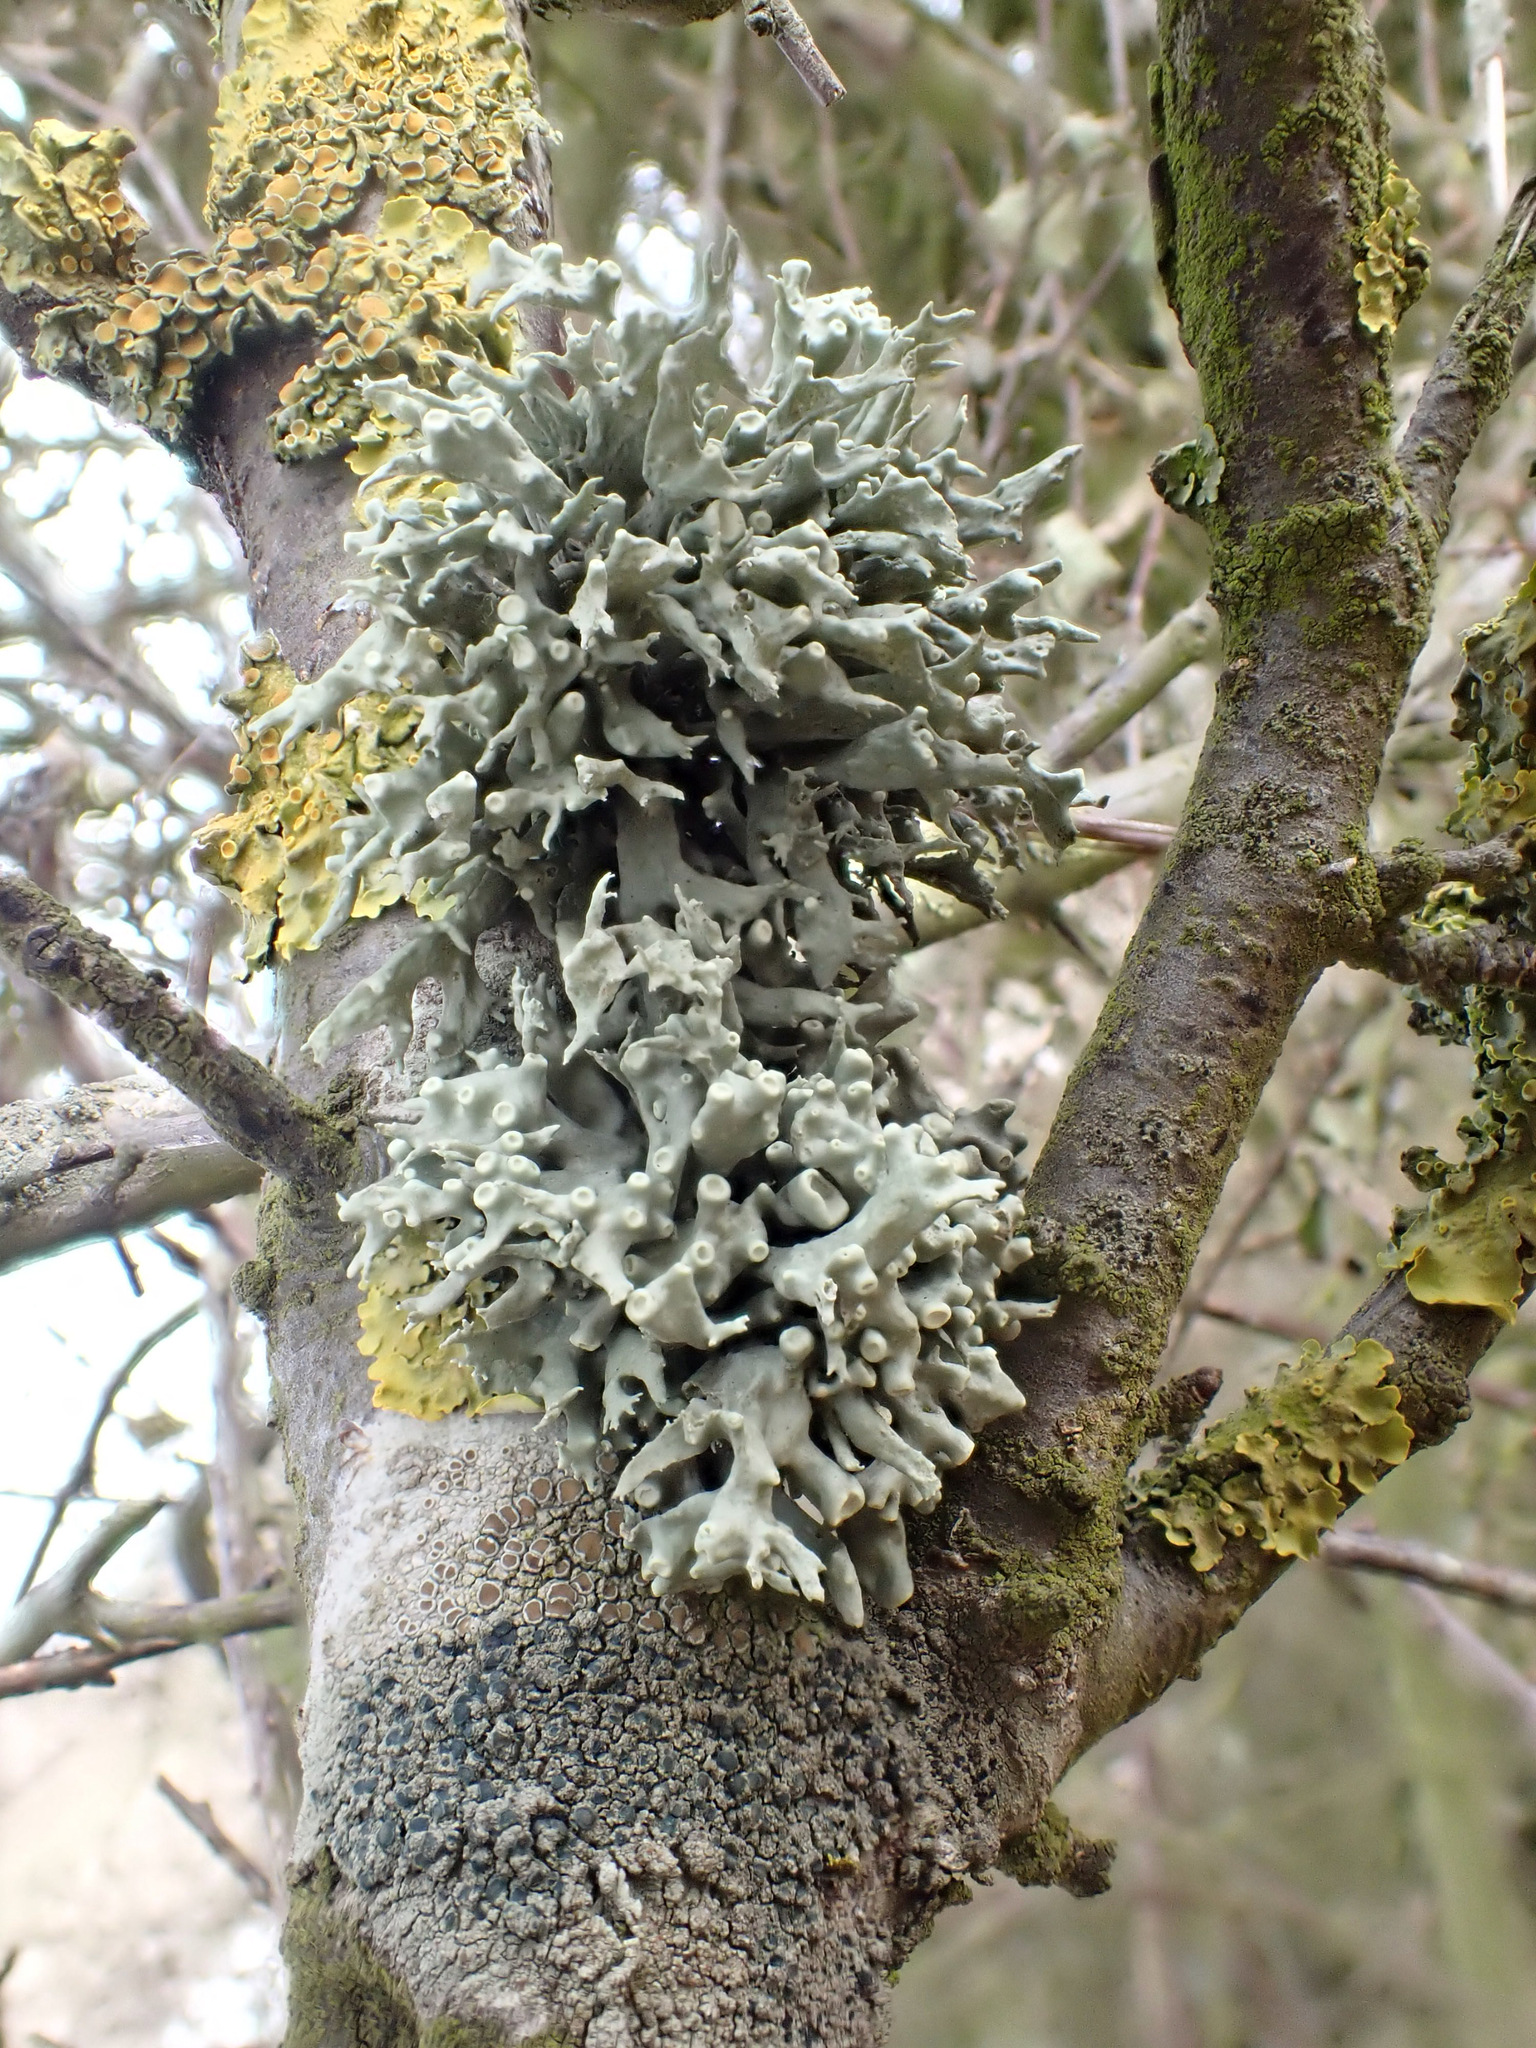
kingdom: Fungi
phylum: Ascomycota
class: Lecanoromycetes
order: Lecanorales
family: Ramalinaceae
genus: Ramalina
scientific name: Ramalina fastigiata
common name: Dotted ribbon lichen
